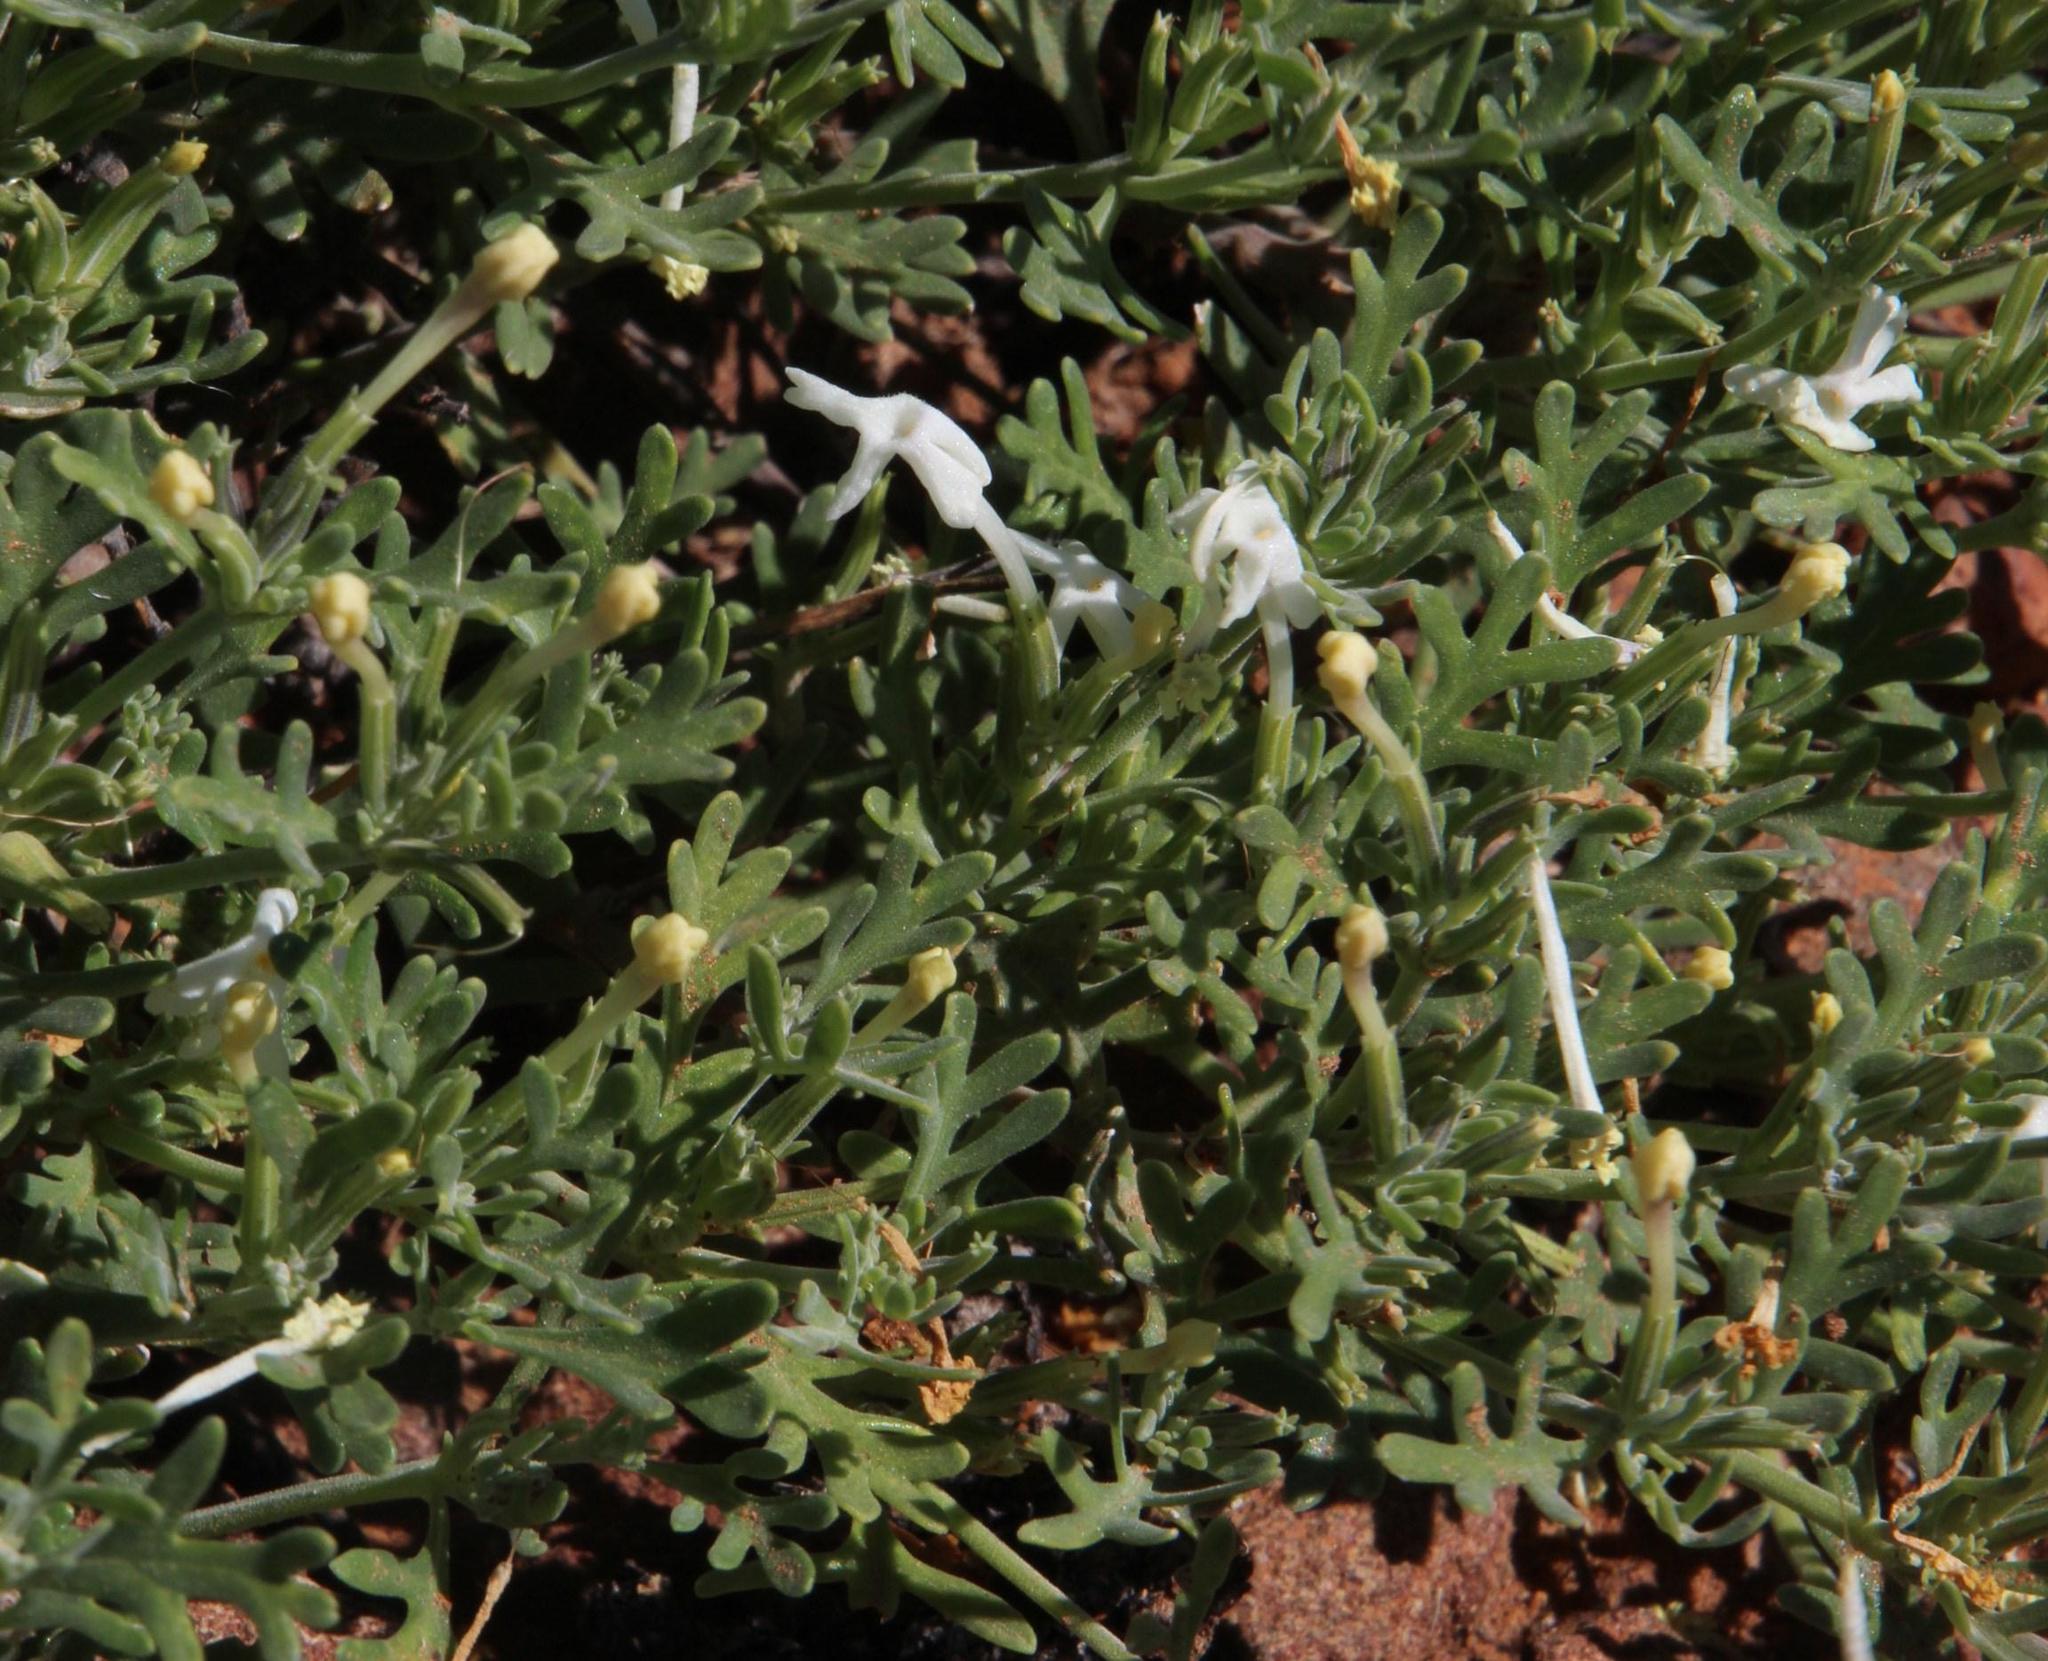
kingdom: Plantae
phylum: Tracheophyta
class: Magnoliopsida
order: Lamiales
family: Verbenaceae
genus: Chascanum
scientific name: Chascanum pinnatifidum
